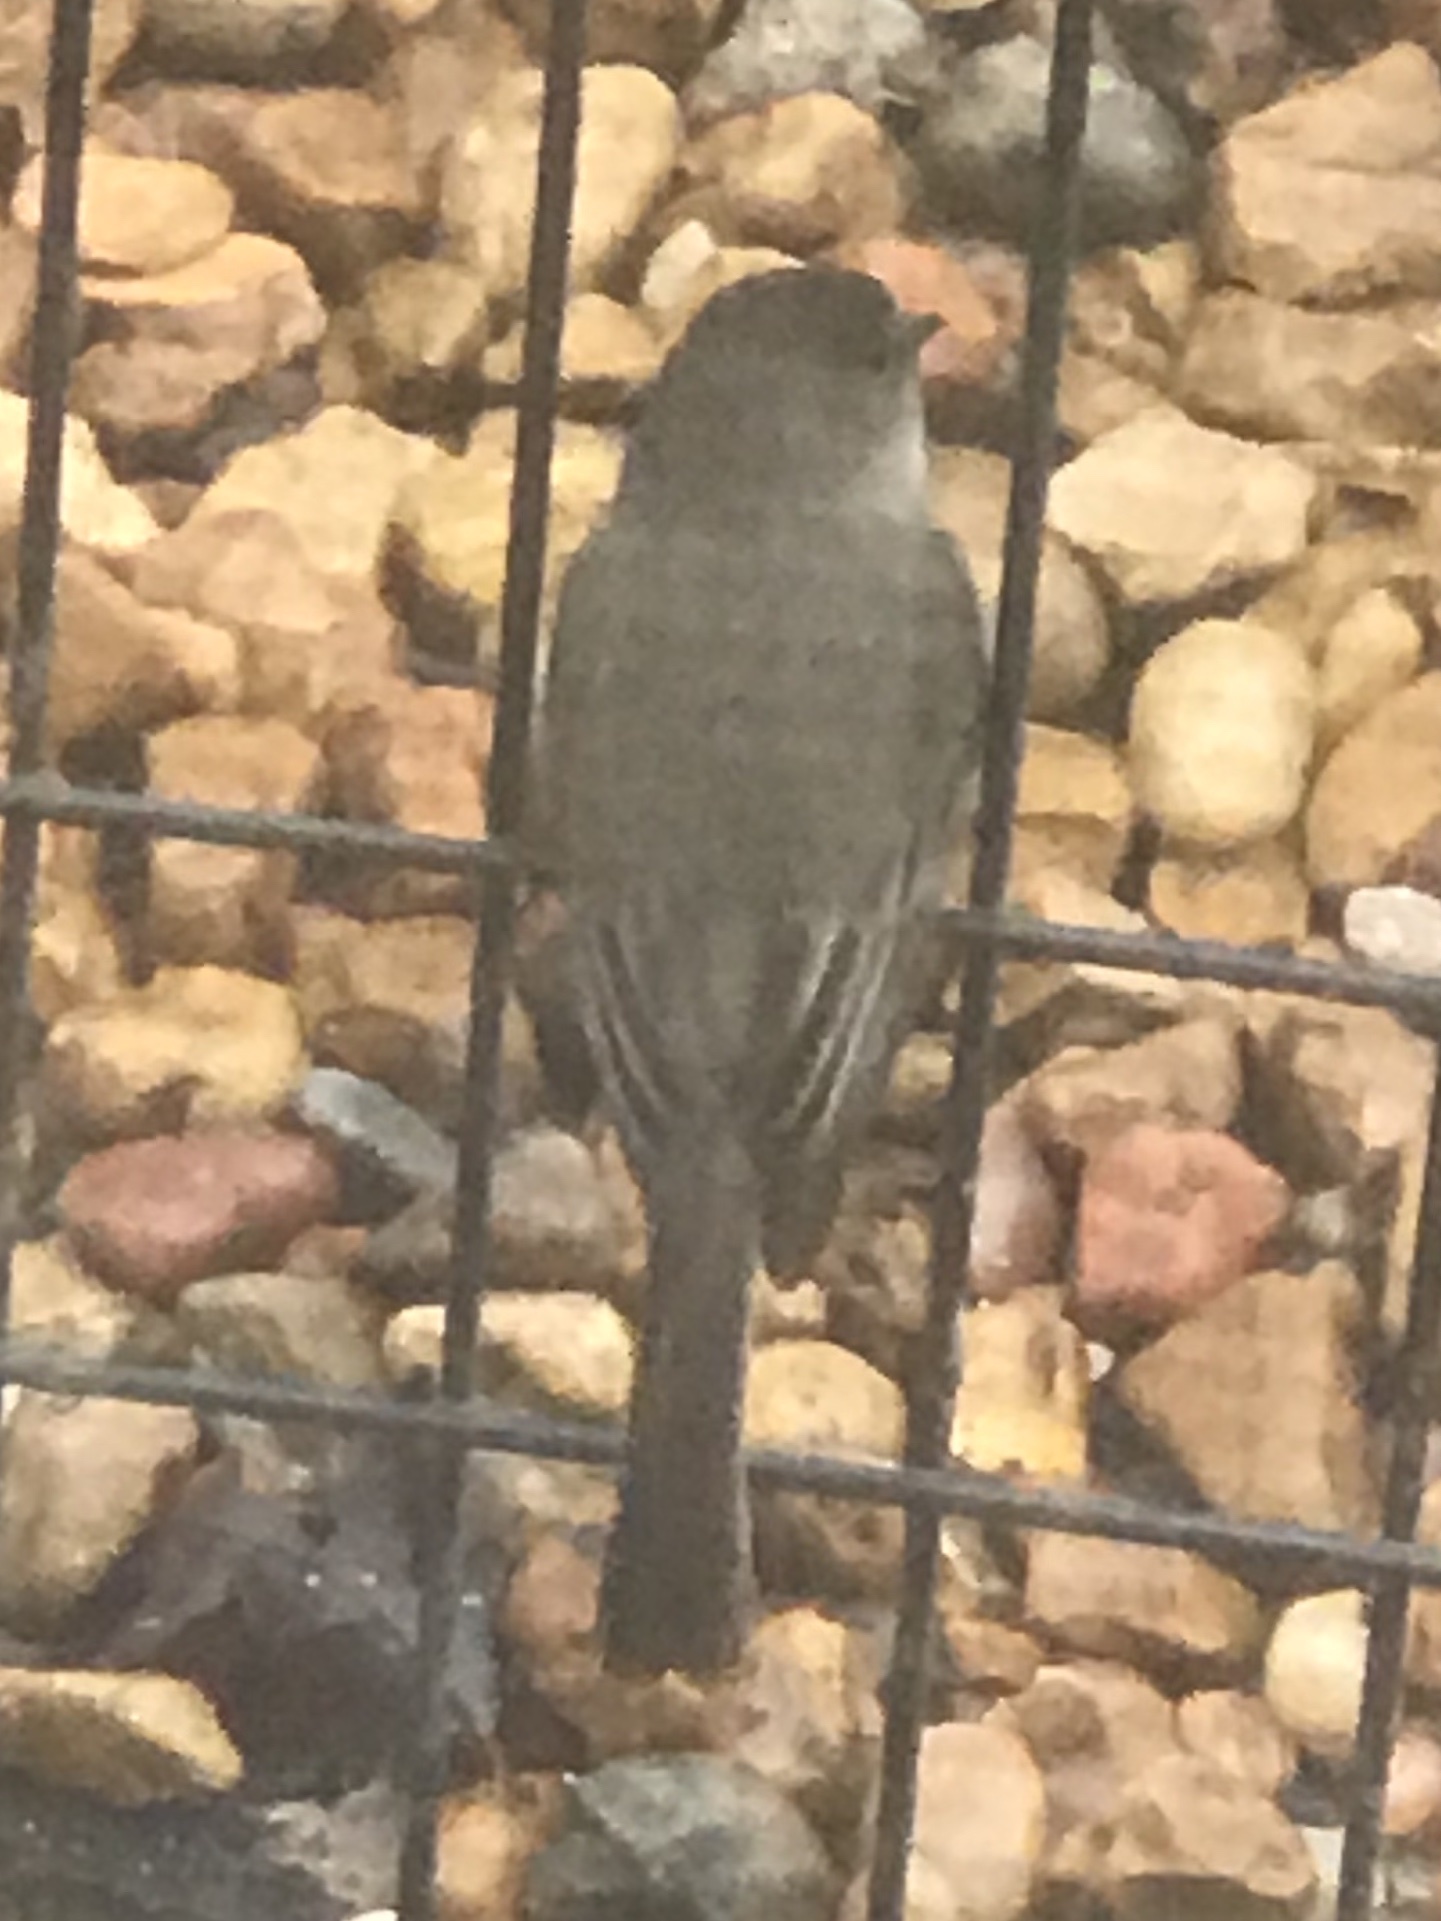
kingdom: Animalia
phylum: Chordata
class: Aves
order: Passeriformes
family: Tyrannidae
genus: Sayornis
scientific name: Sayornis phoebe
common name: Eastern phoebe
